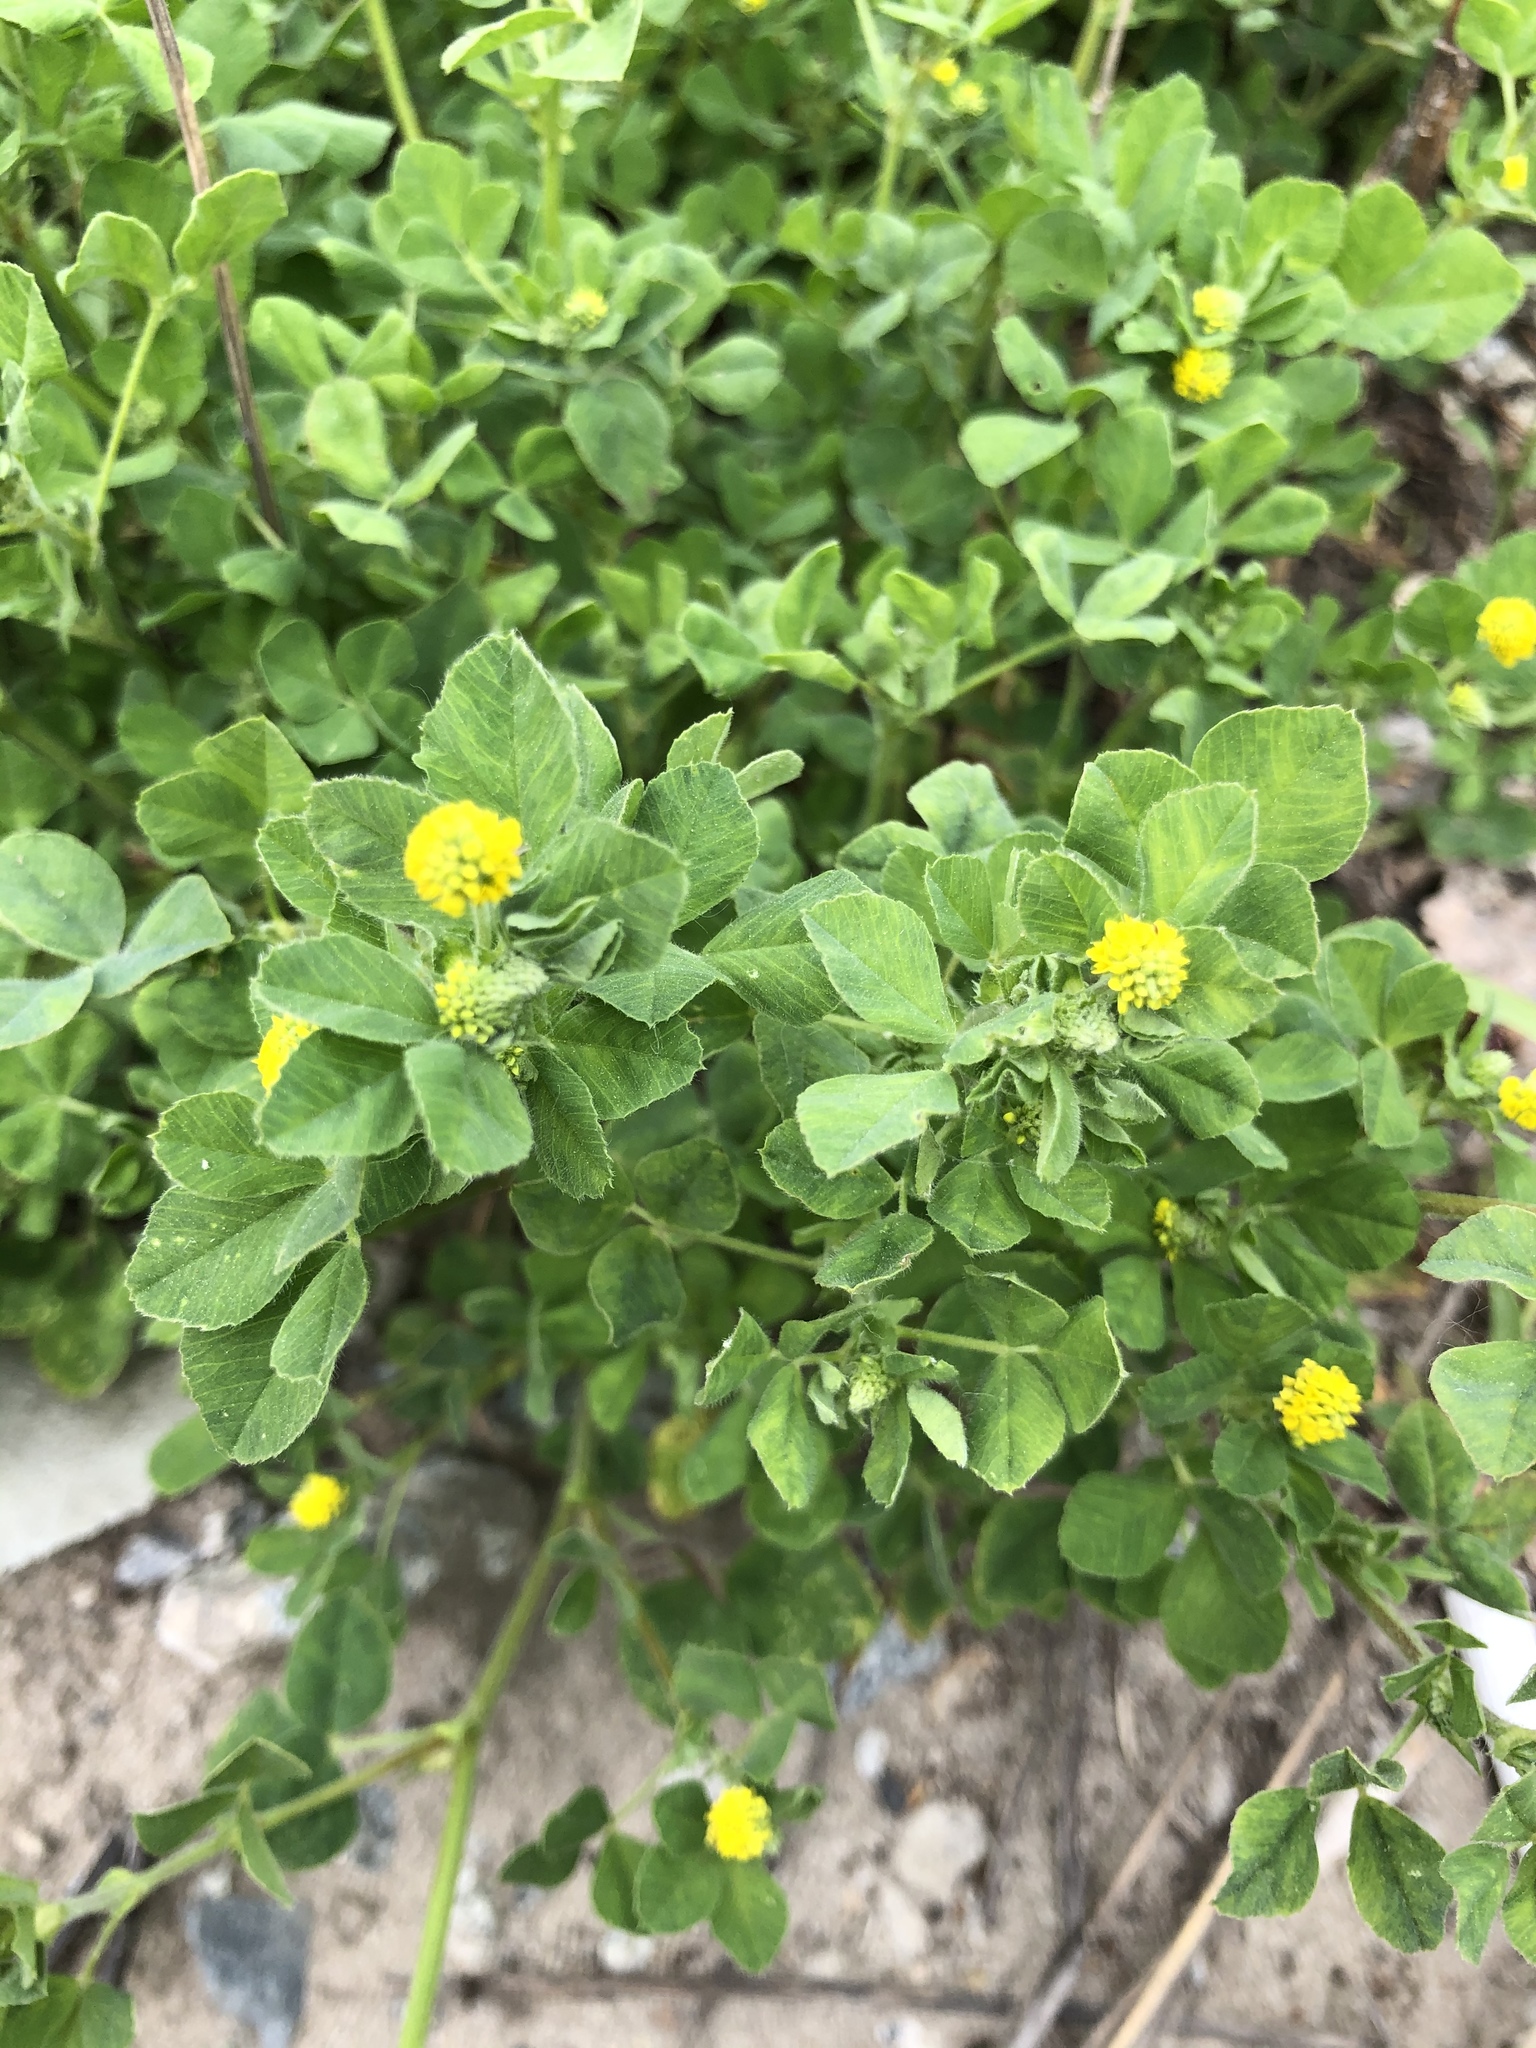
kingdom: Plantae
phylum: Tracheophyta
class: Magnoliopsida
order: Fabales
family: Fabaceae
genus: Medicago
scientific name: Medicago lupulina
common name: Black medick
